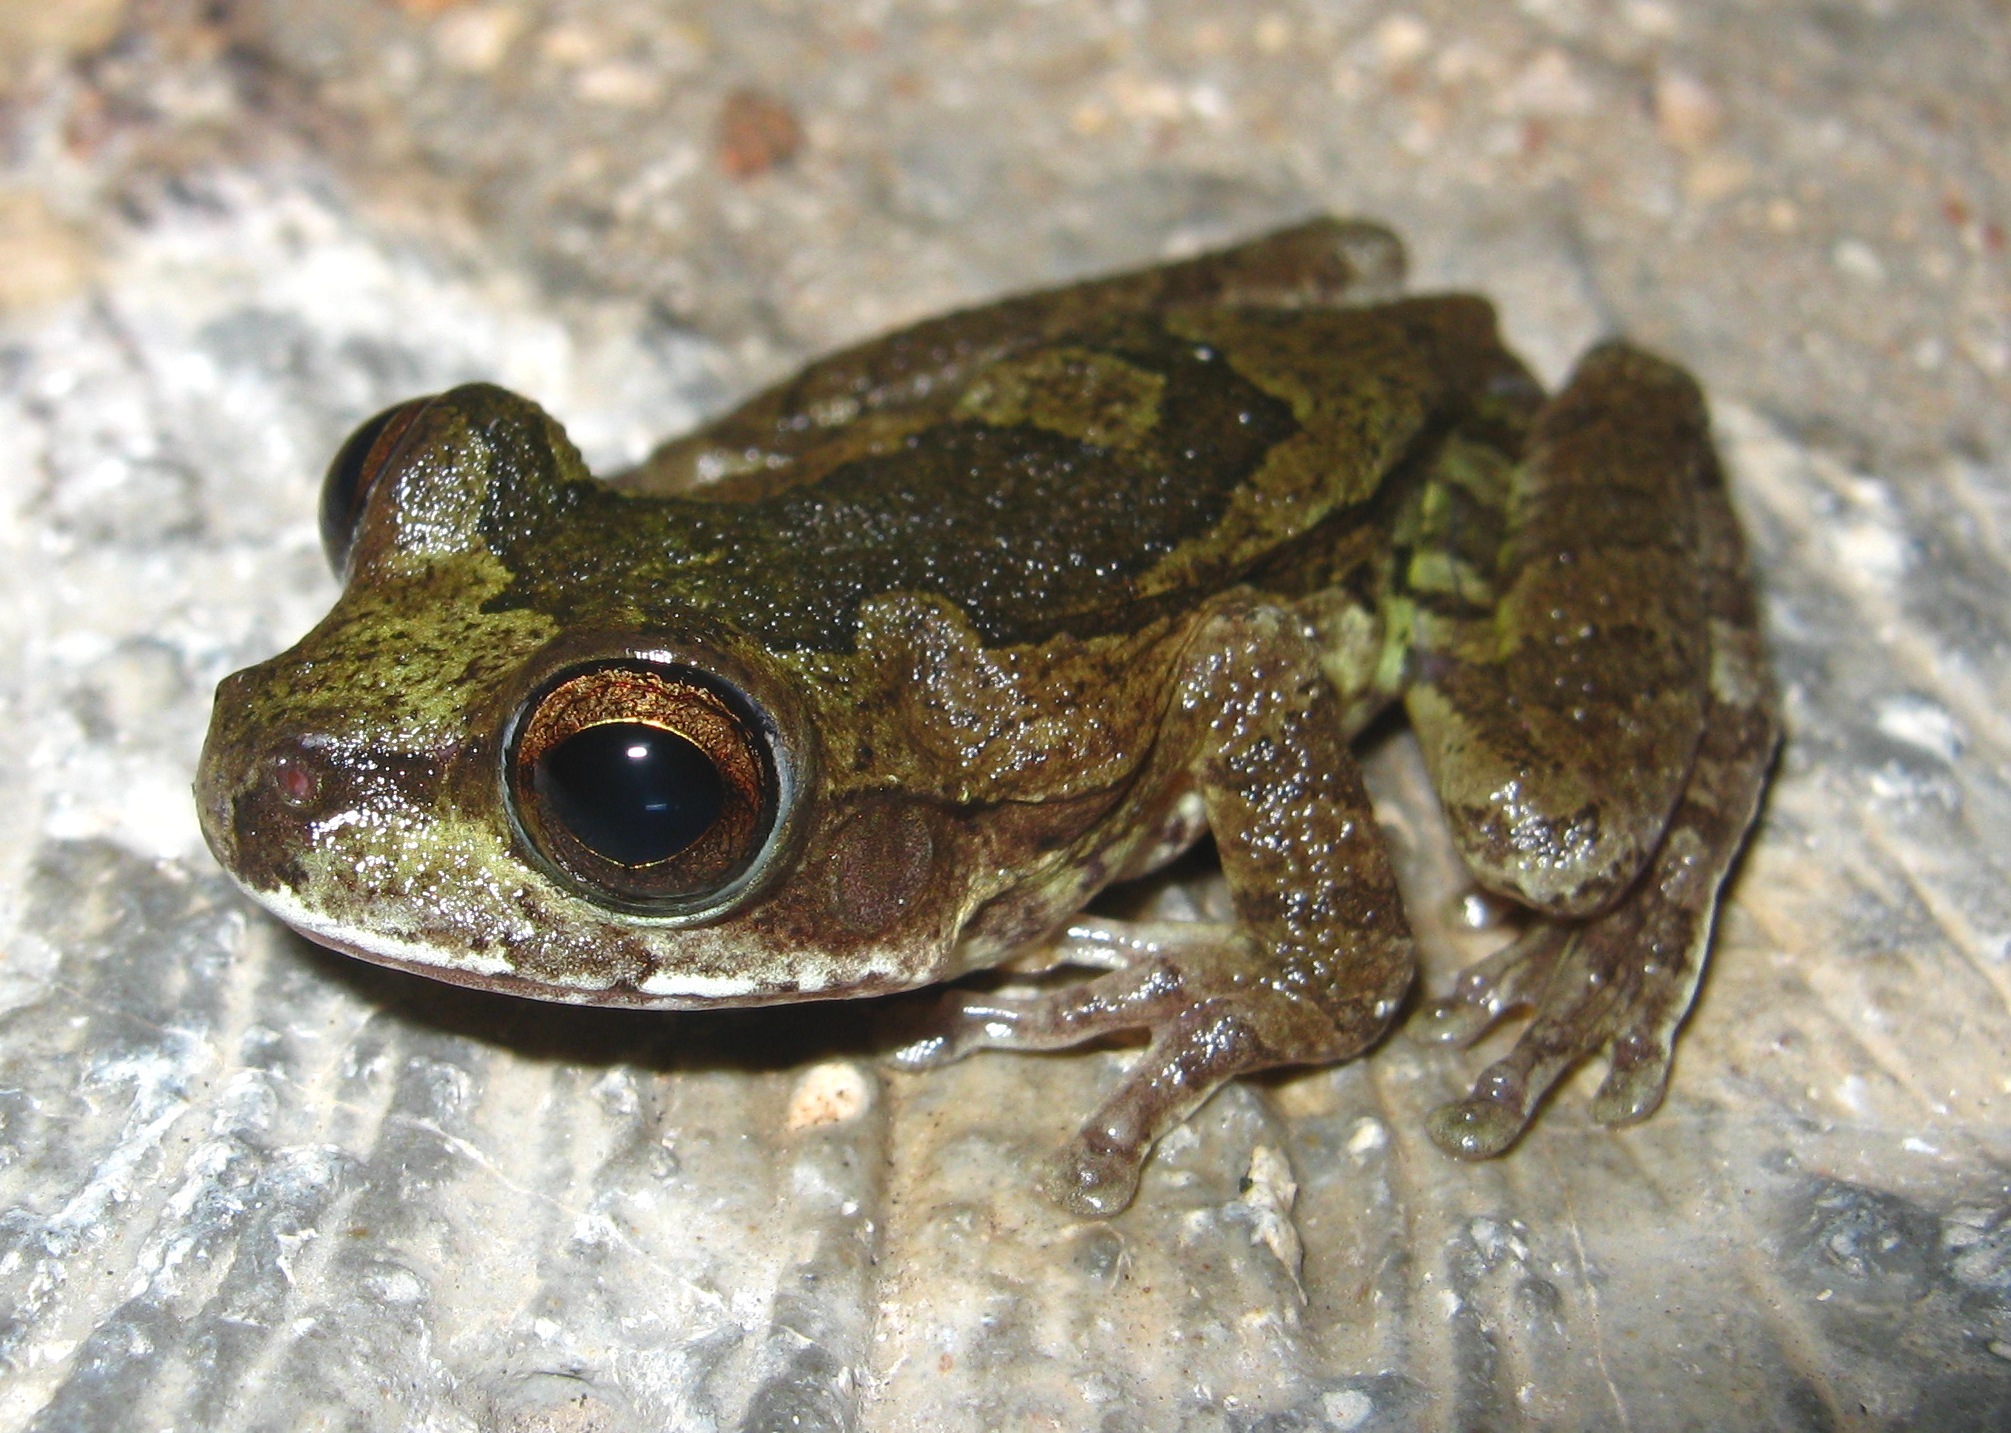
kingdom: Animalia
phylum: Chordata
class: Amphibia
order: Anura
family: Hylidae
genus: Smilisca
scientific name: Smilisca baudinii
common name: Mexican smilisca
